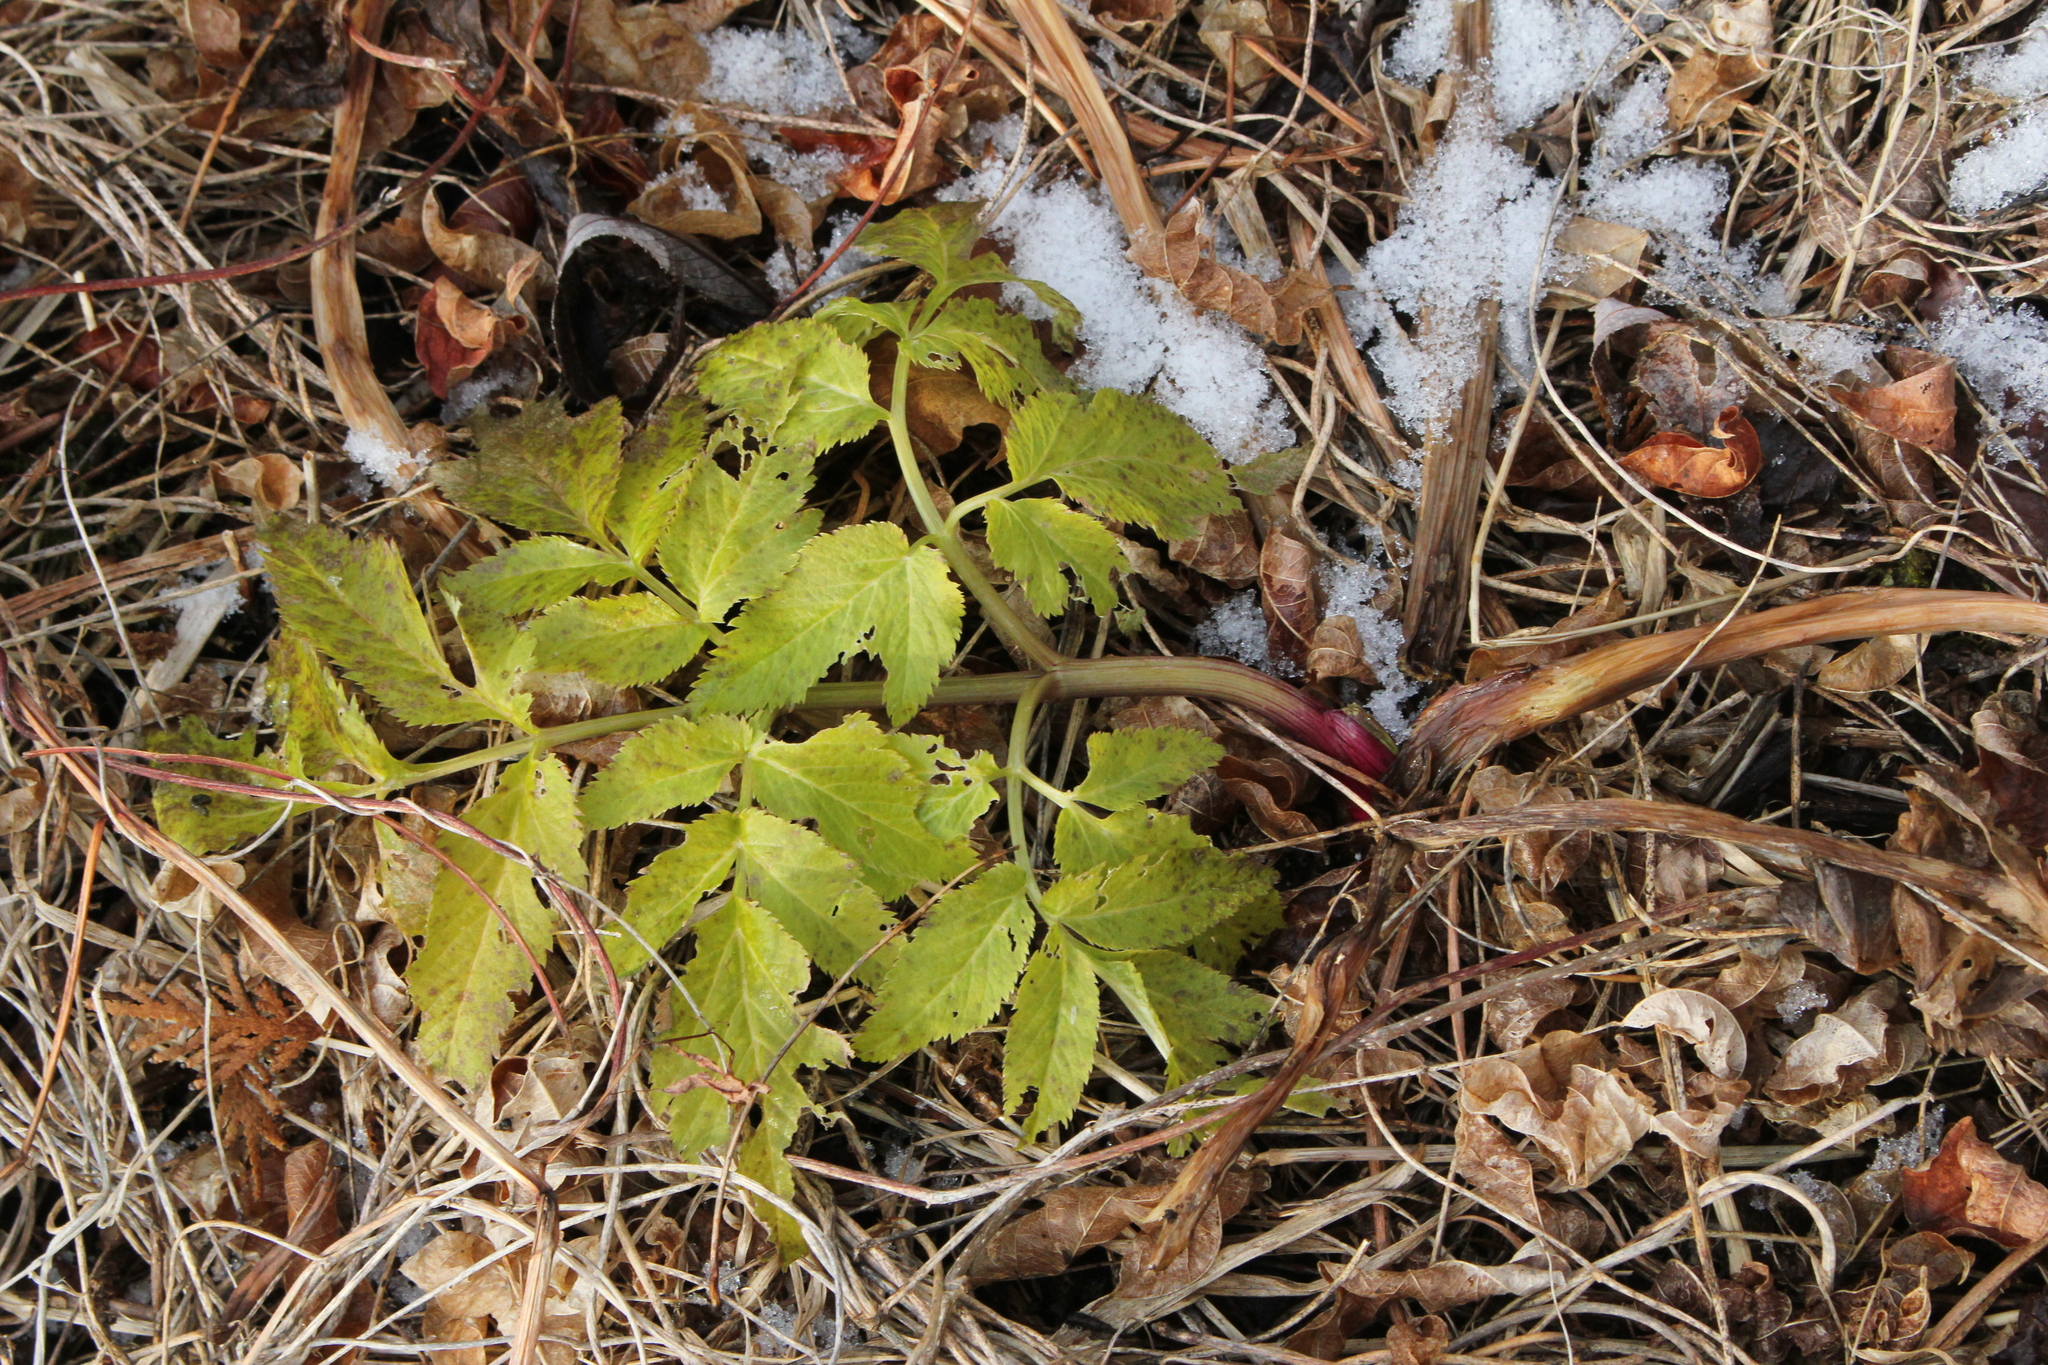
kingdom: Plantae
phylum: Tracheophyta
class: Magnoliopsida
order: Apiales
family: Apiaceae
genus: Angelica
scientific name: Angelica atropurpurea
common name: Great angelica
